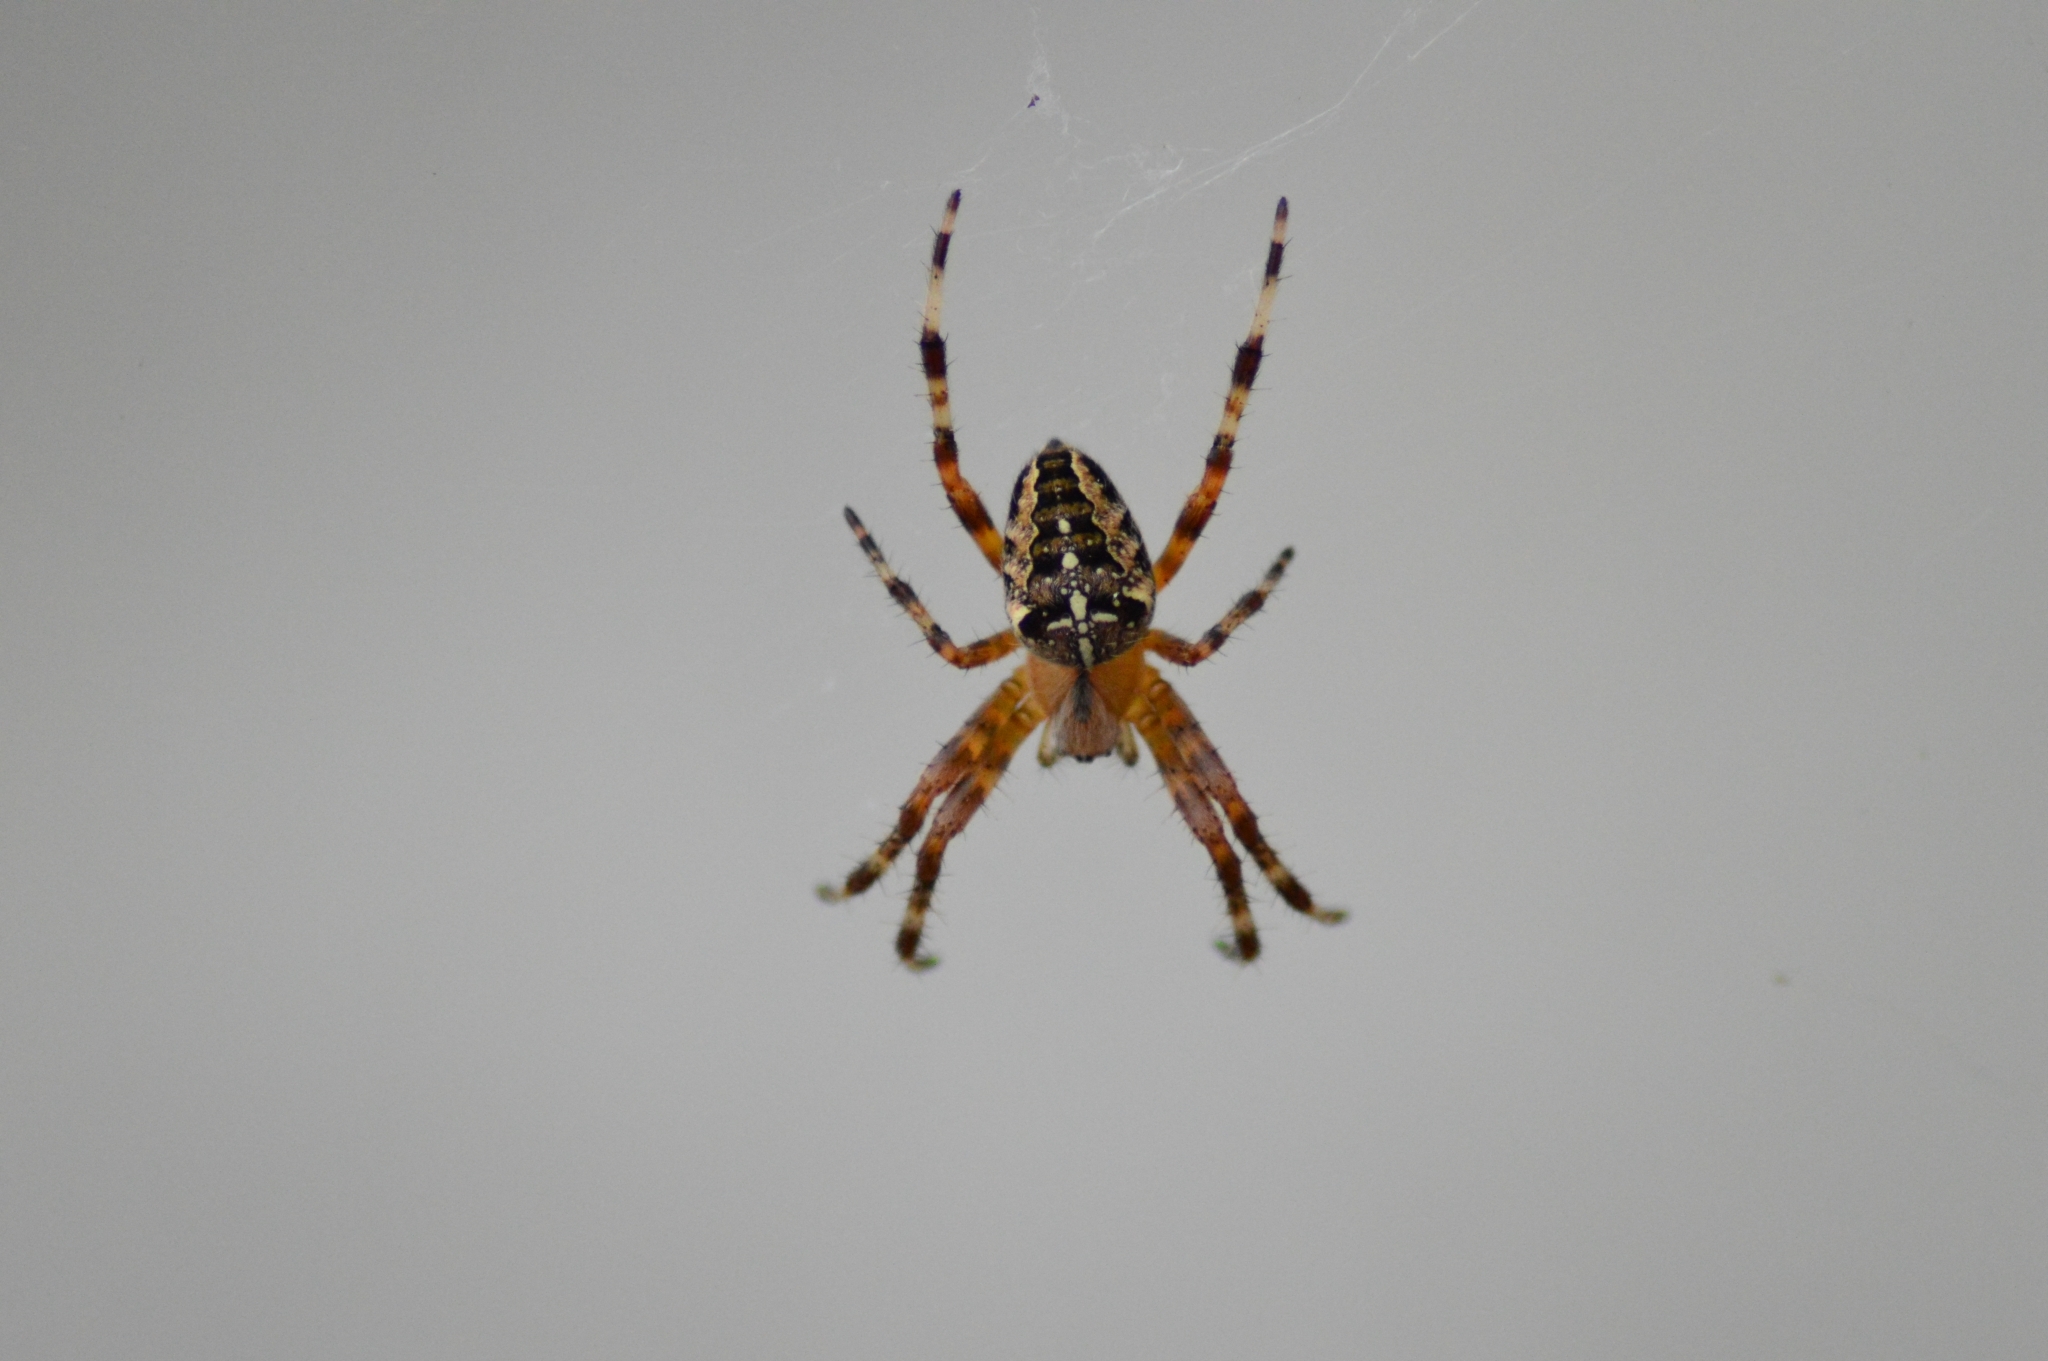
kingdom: Animalia
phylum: Arthropoda
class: Arachnida
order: Araneae
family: Araneidae
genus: Araneus
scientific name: Araneus diadematus
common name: Cross orbweaver
